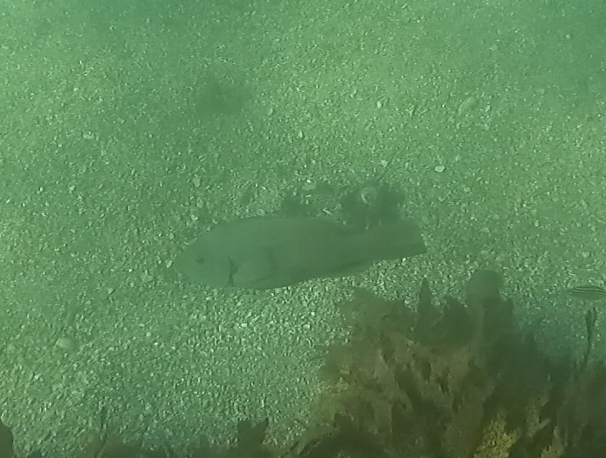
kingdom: Animalia
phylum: Chordata
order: Perciformes
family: Labridae
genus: Achoerodus
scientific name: Achoerodus viridis
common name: Brown groper
